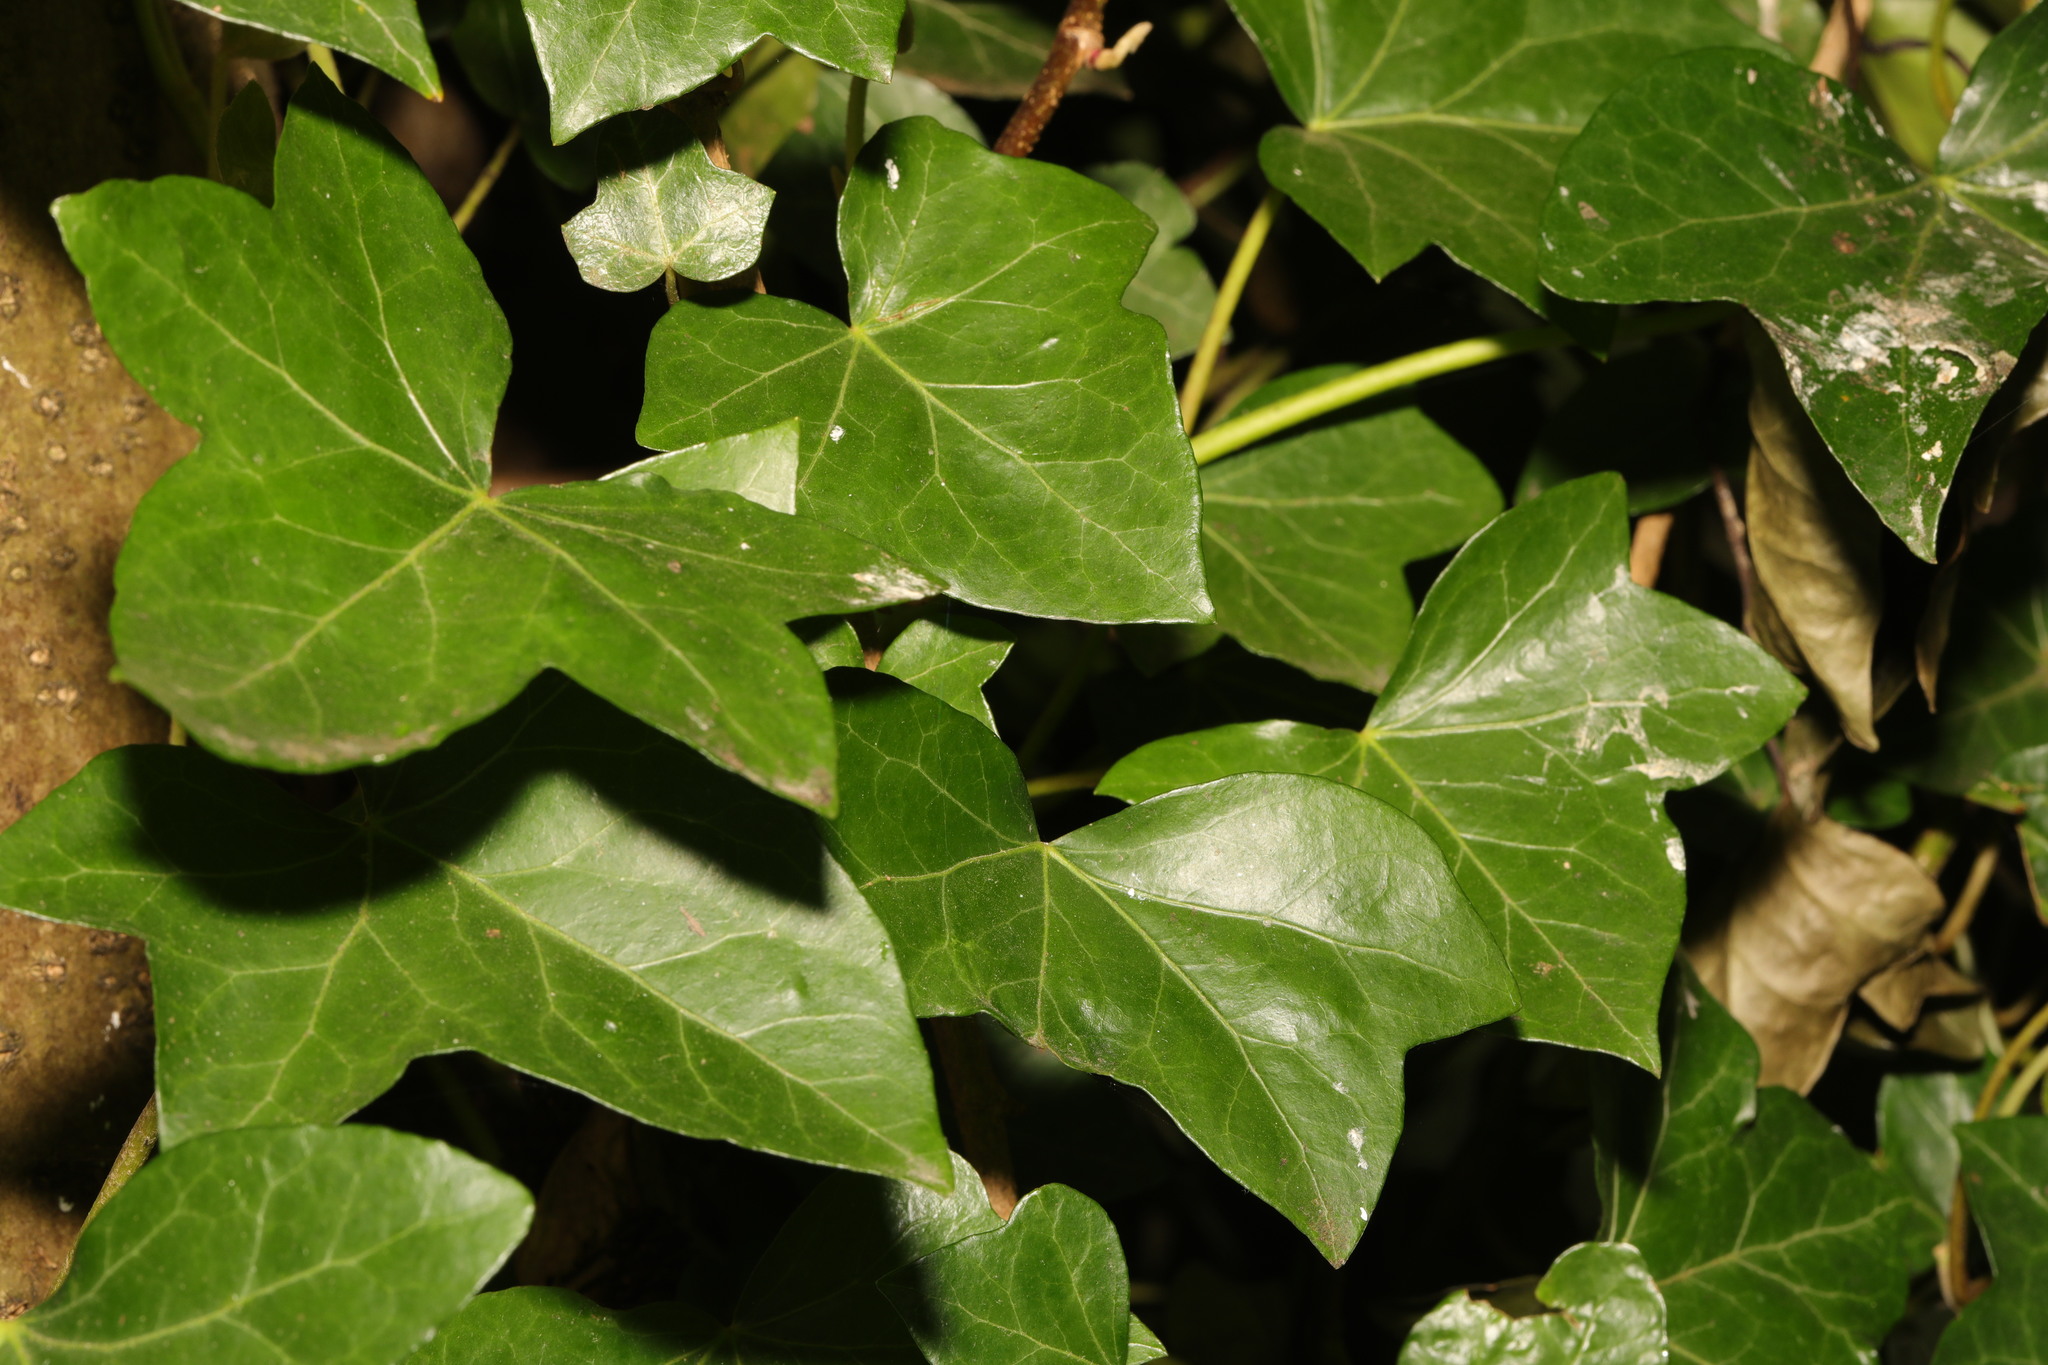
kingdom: Plantae
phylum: Tracheophyta
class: Magnoliopsida
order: Apiales
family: Araliaceae
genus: Hedera
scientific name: Hedera helix
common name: Ivy
